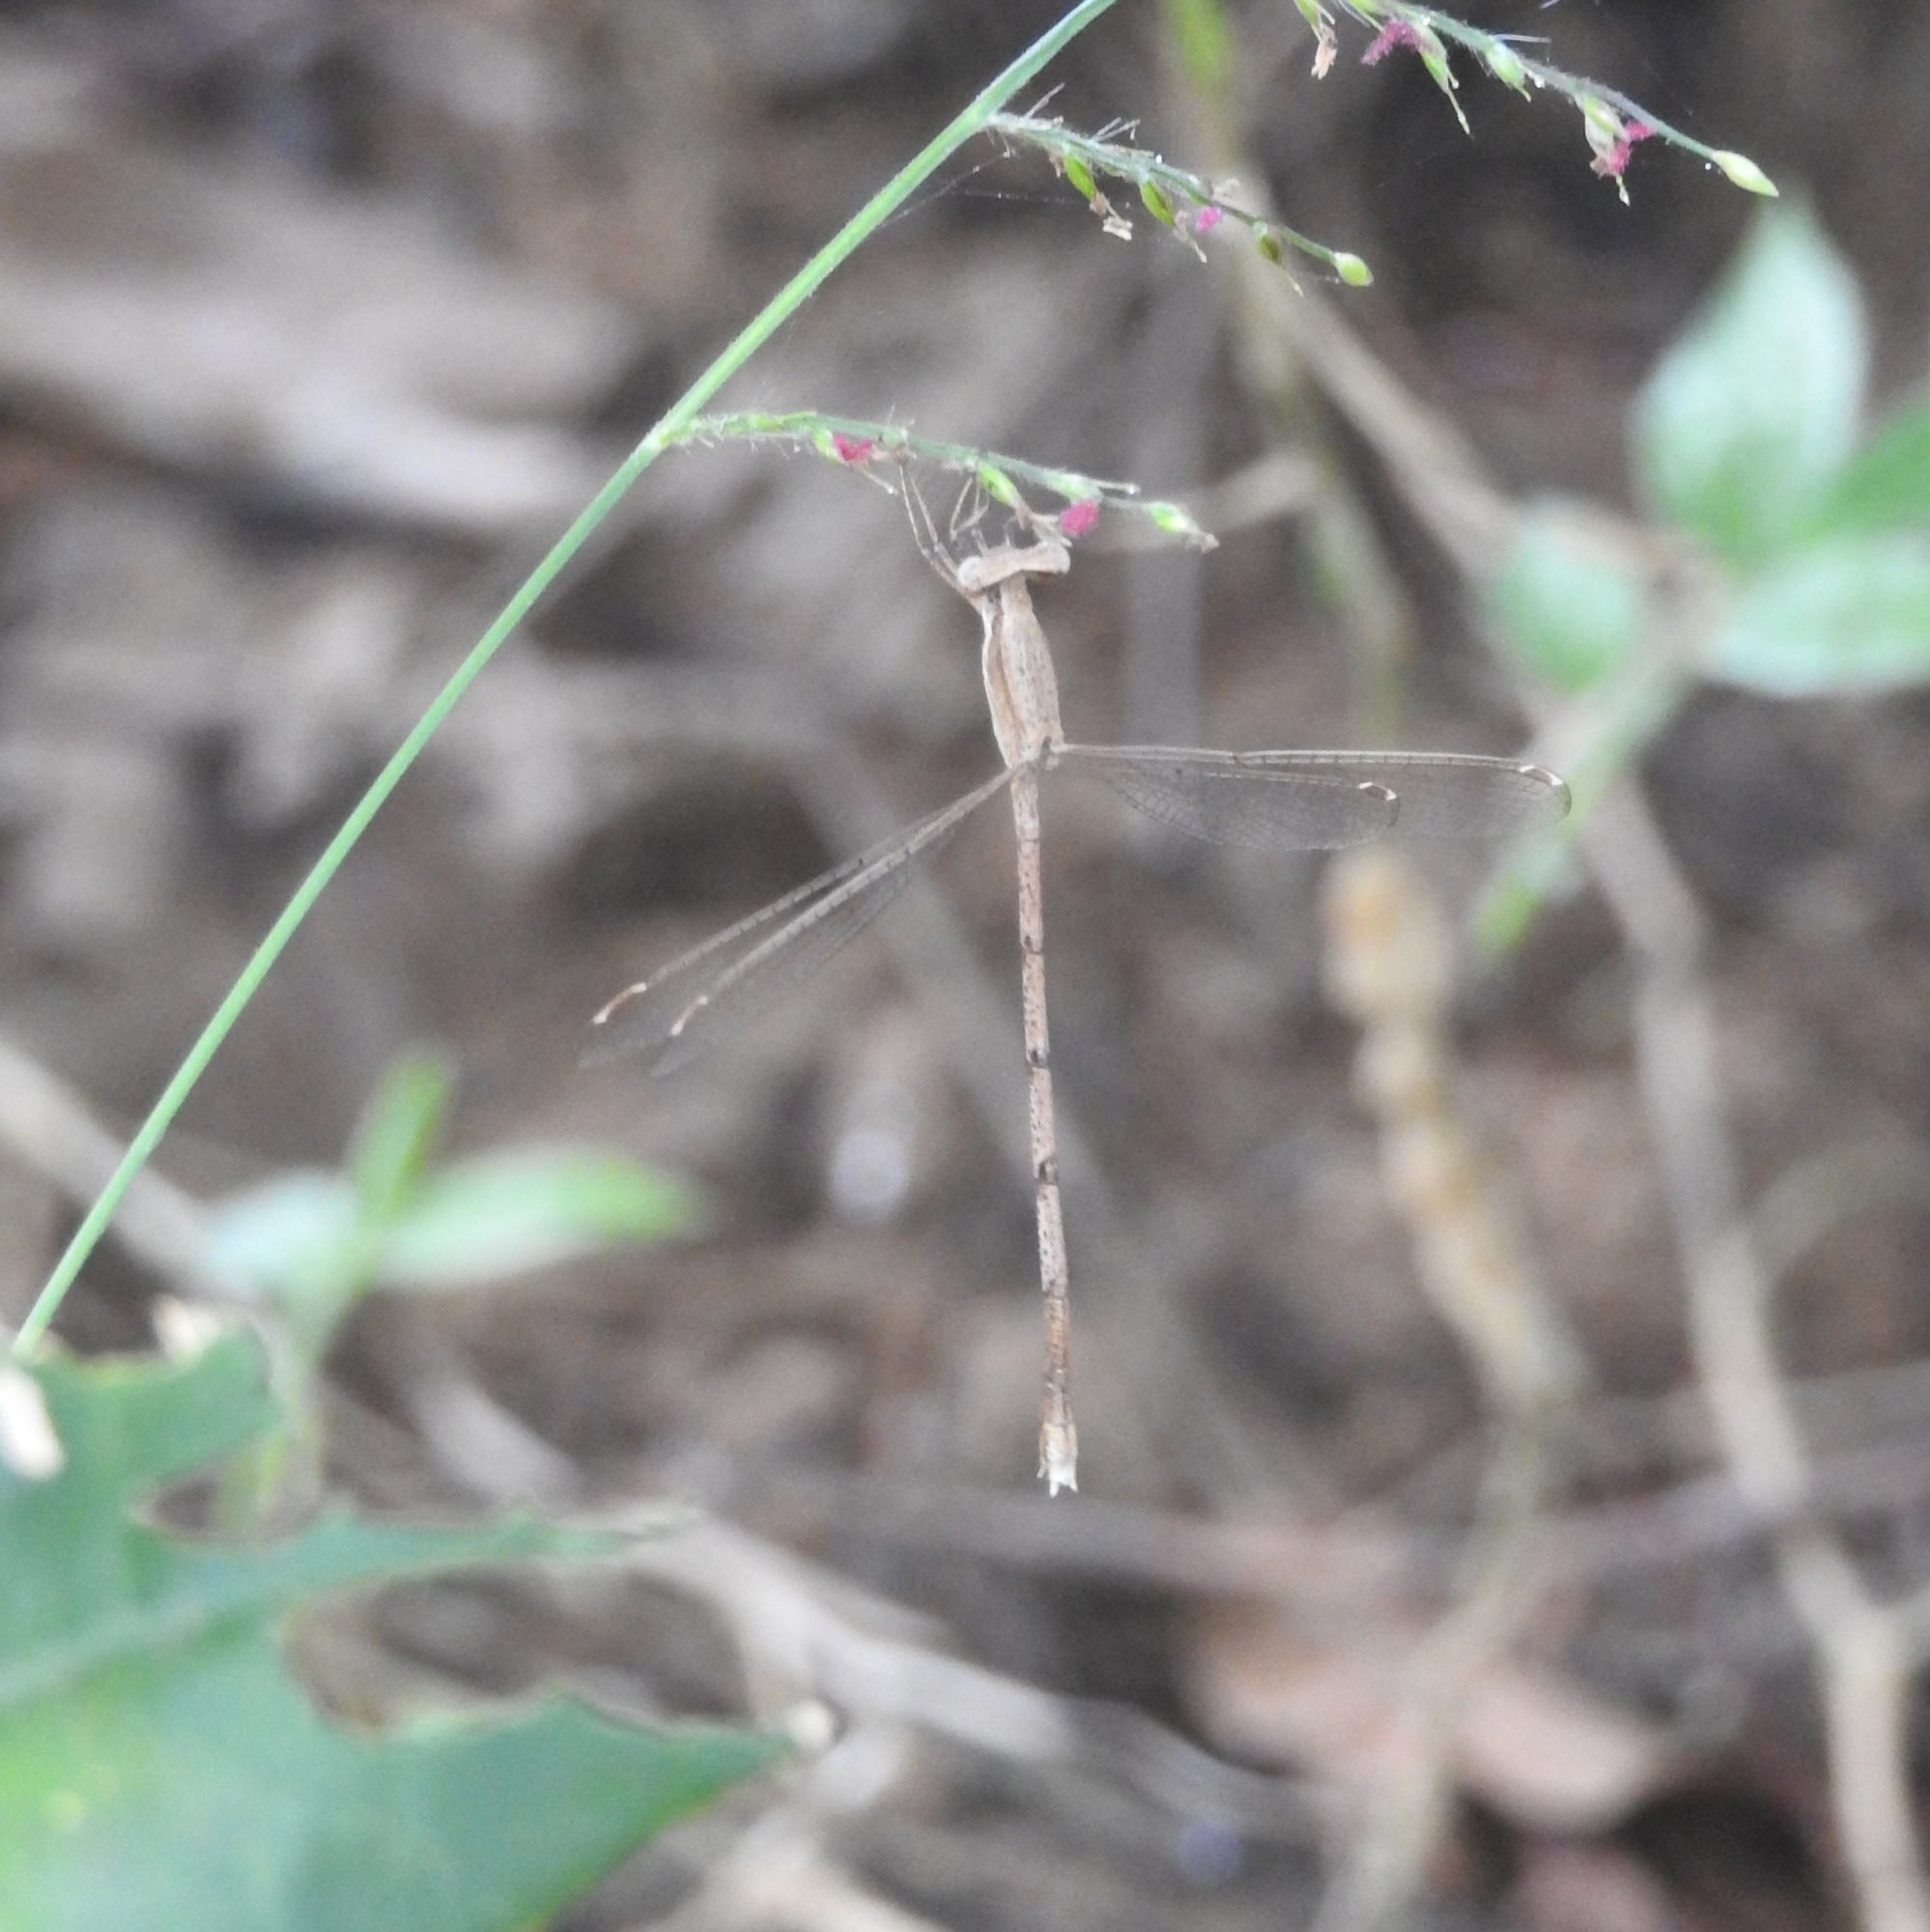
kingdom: Animalia
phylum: Arthropoda
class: Insecta
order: Odonata
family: Lestidae
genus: Lestes
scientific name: Lestes nodalis
